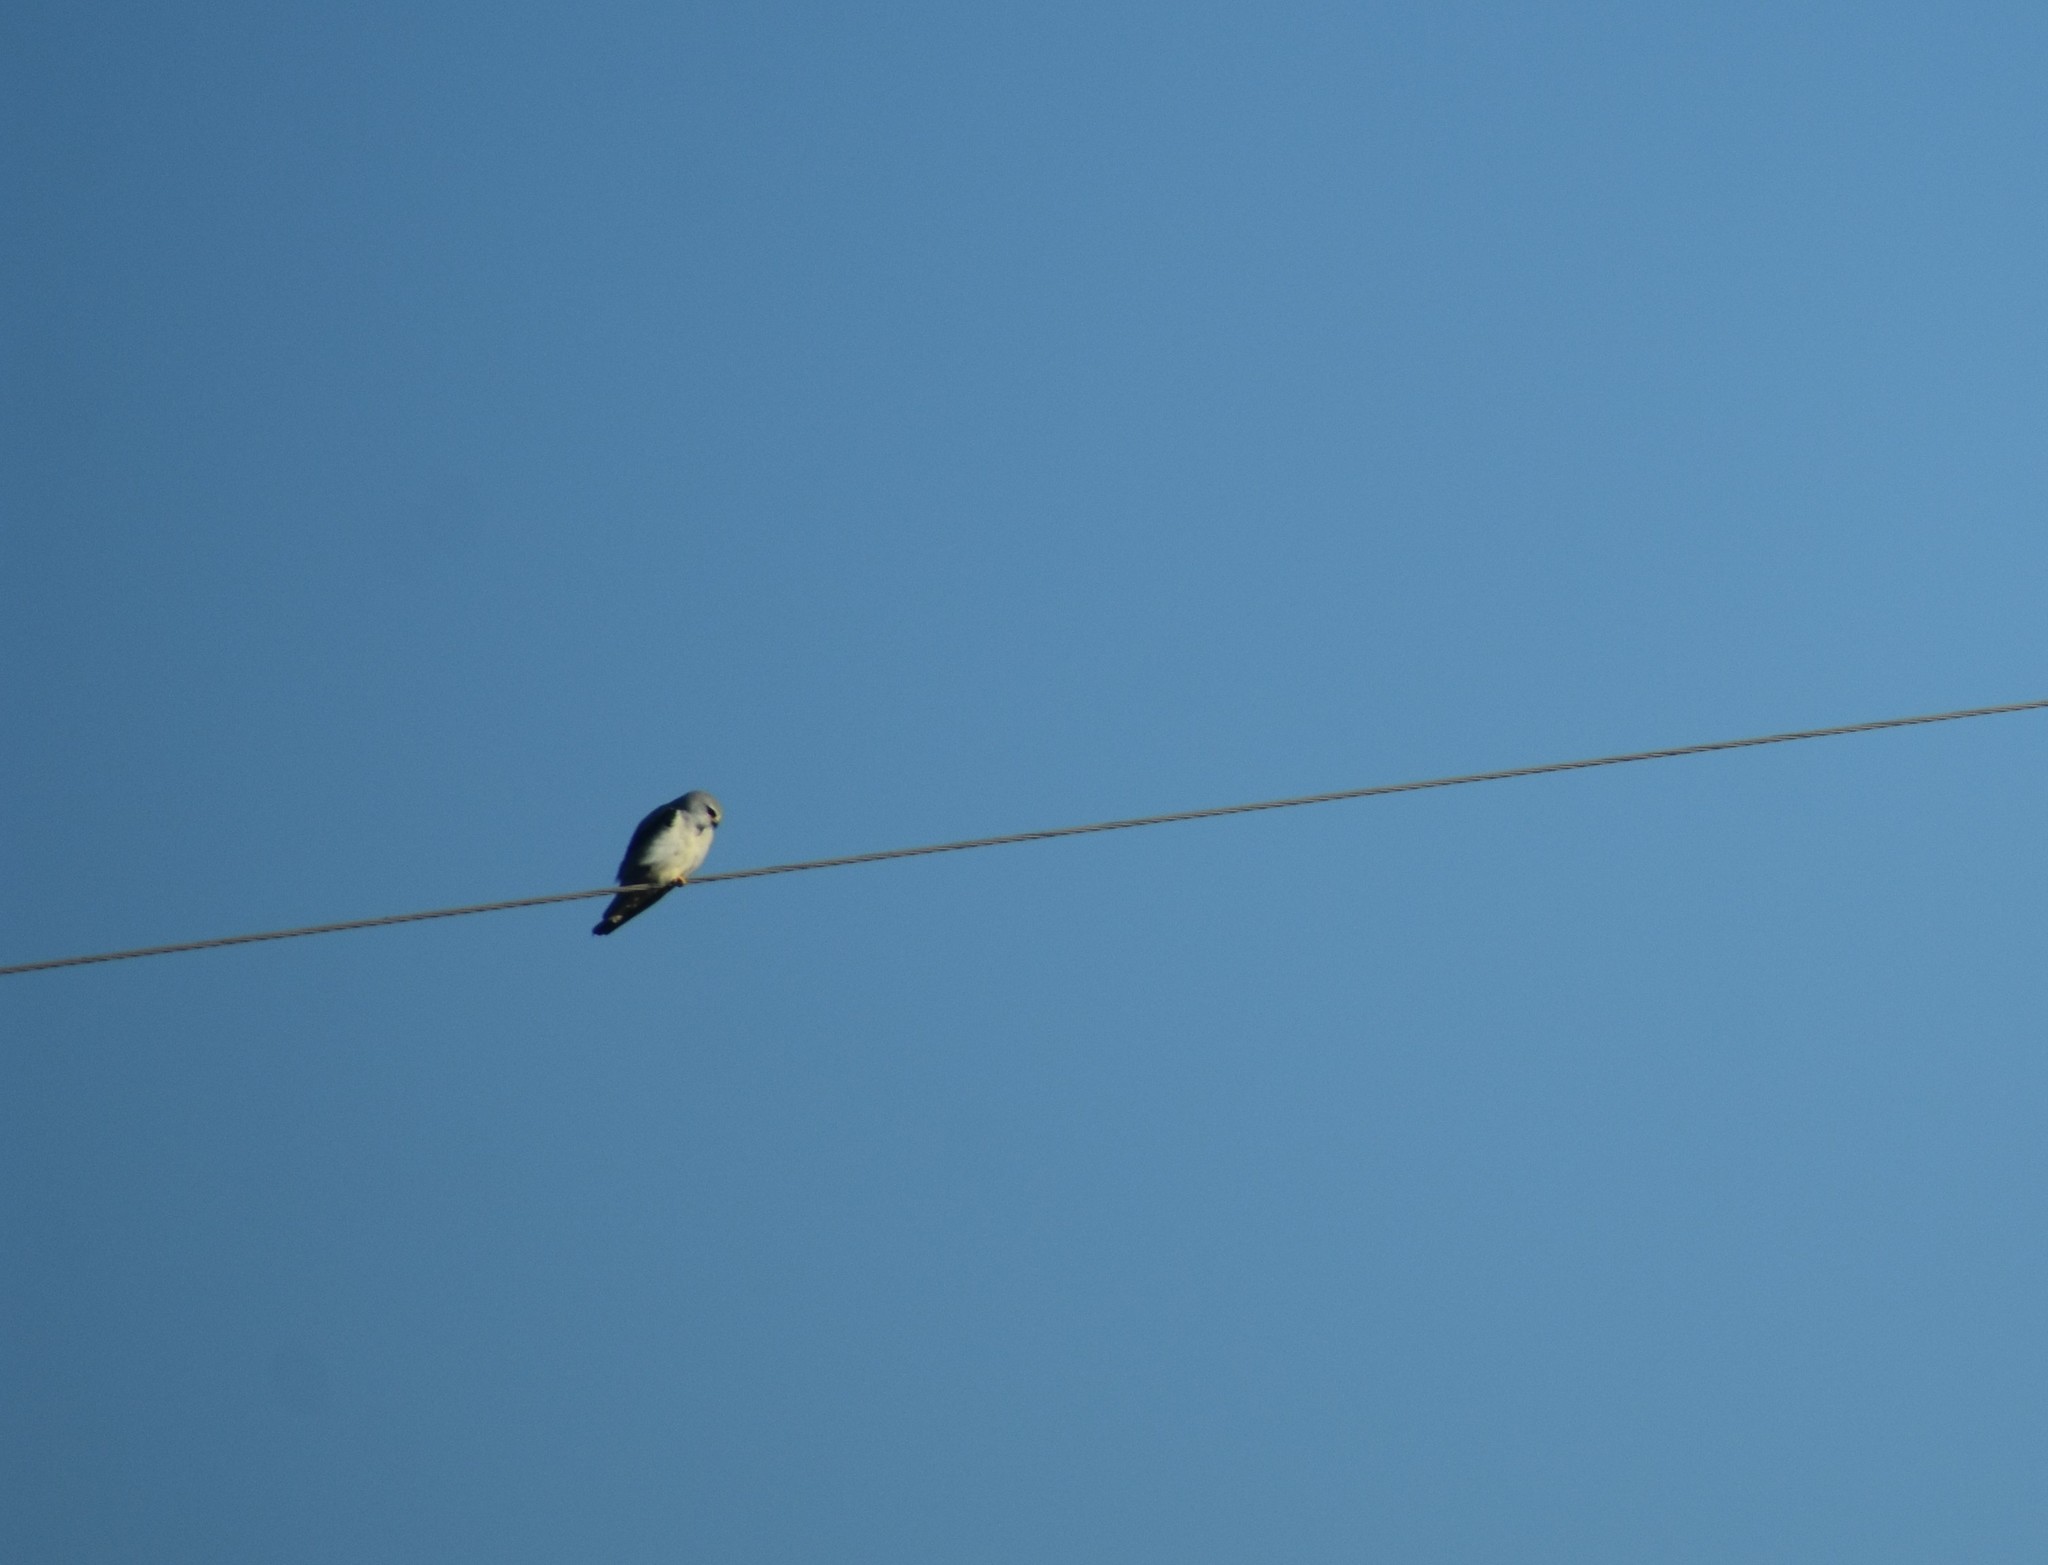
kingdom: Animalia
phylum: Chordata
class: Aves
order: Accipitriformes
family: Accipitridae
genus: Elanus
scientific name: Elanus caeruleus
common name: Black-winged kite
